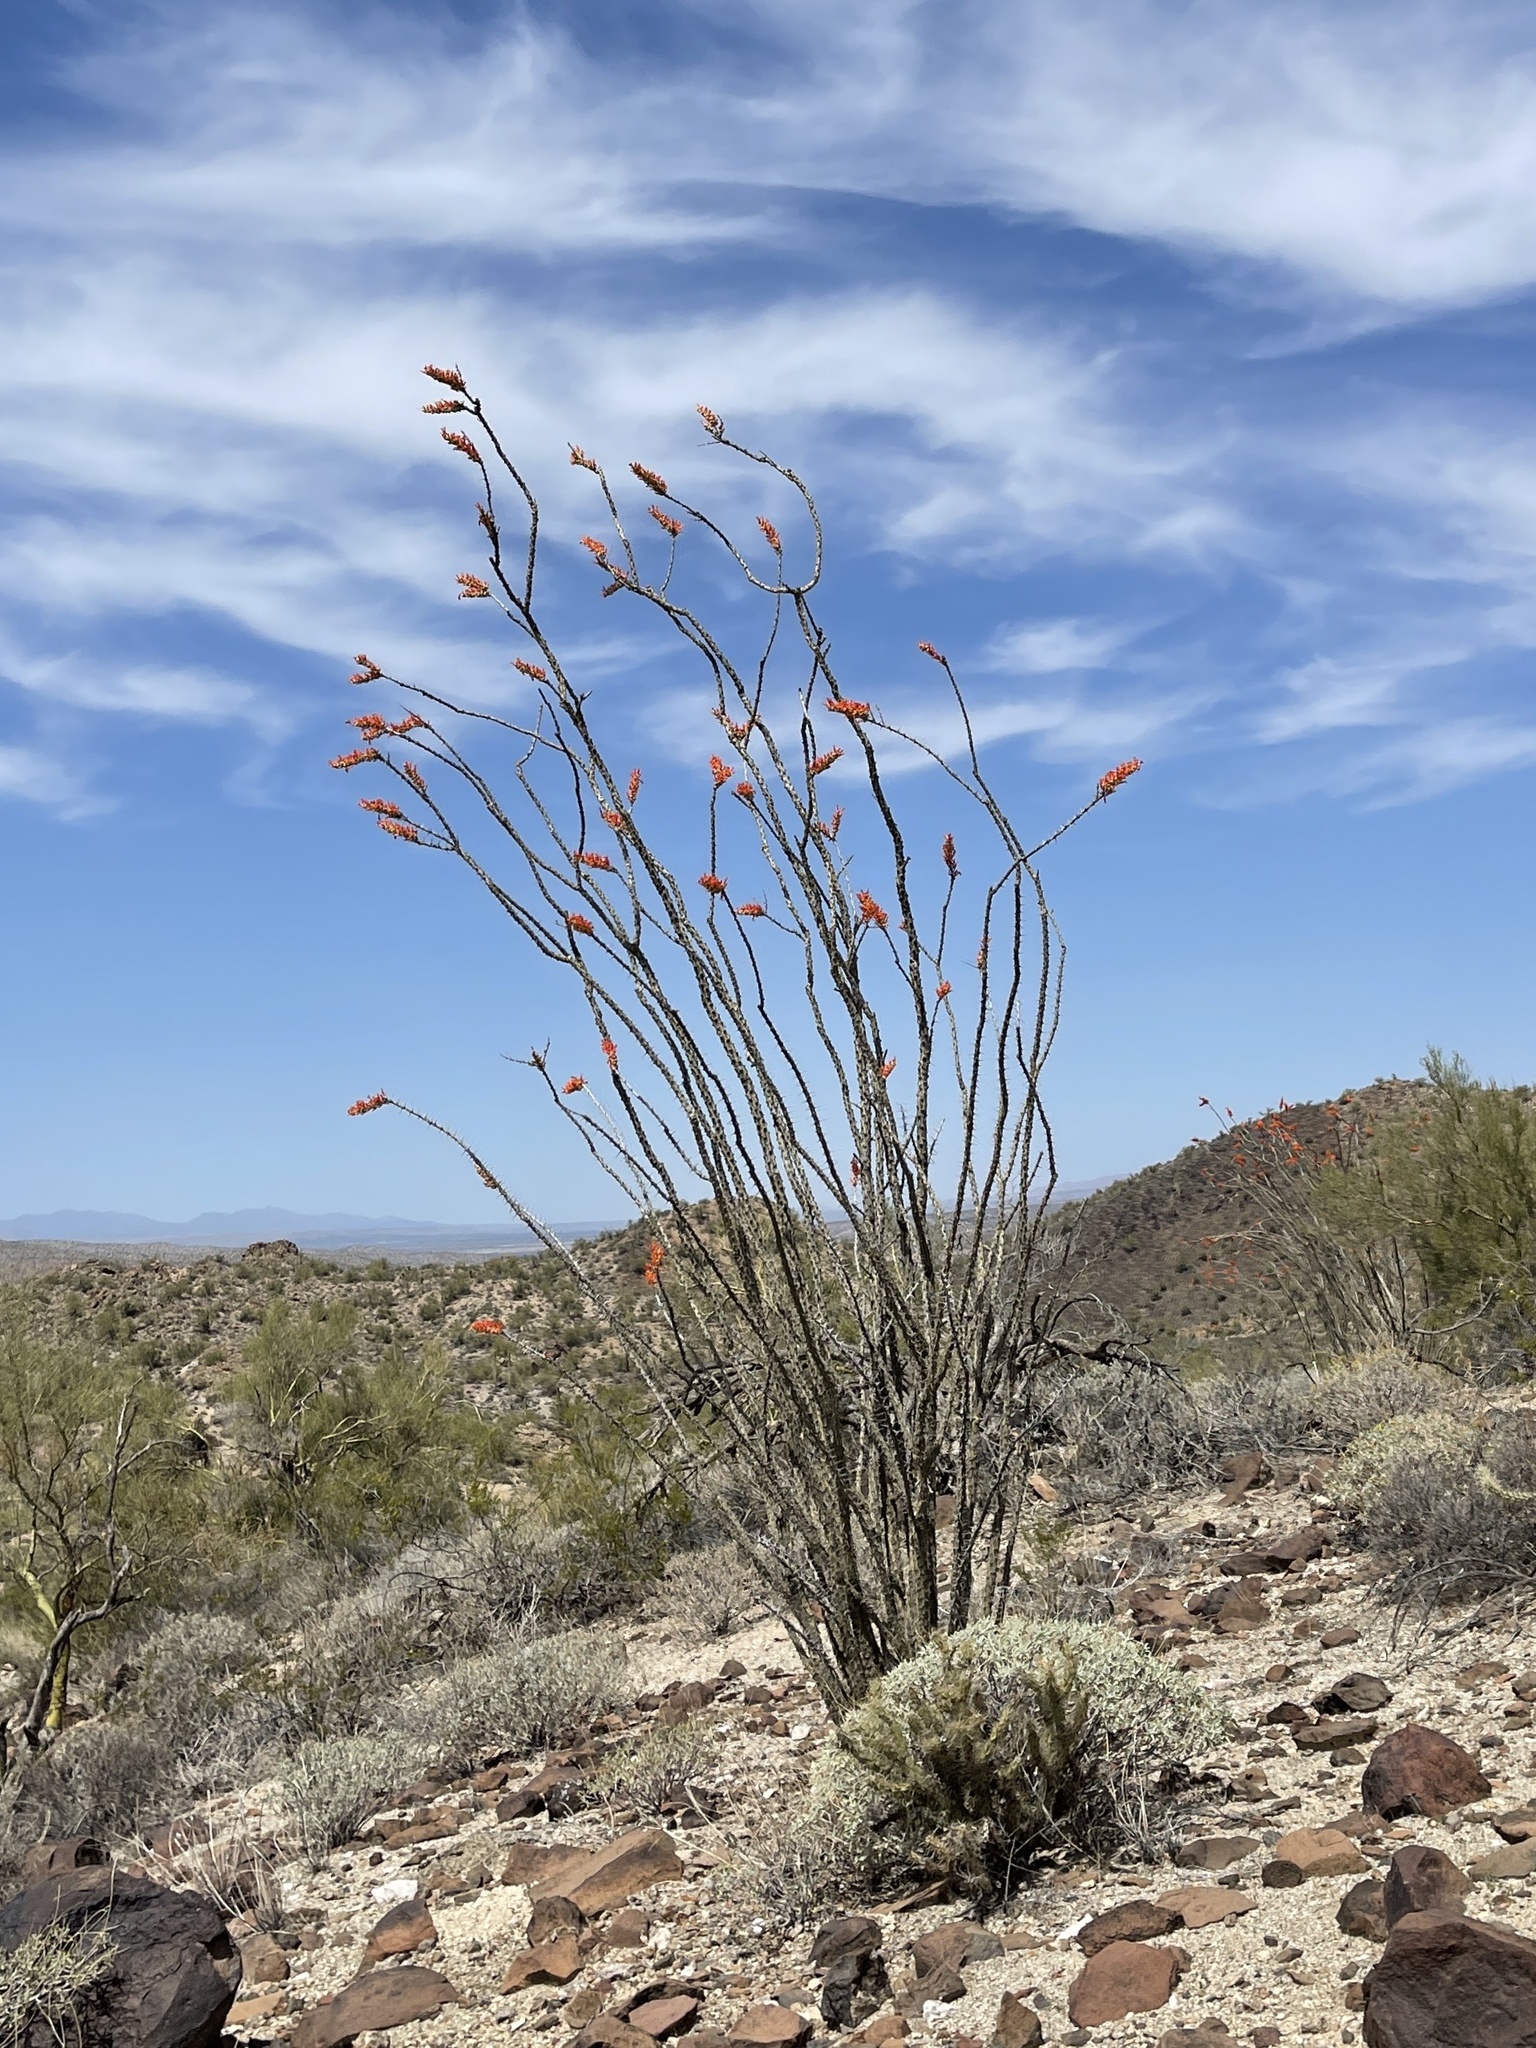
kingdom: Plantae
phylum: Tracheophyta
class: Magnoliopsida
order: Ericales
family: Fouquieriaceae
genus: Fouquieria
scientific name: Fouquieria splendens
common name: Vine-cactus
